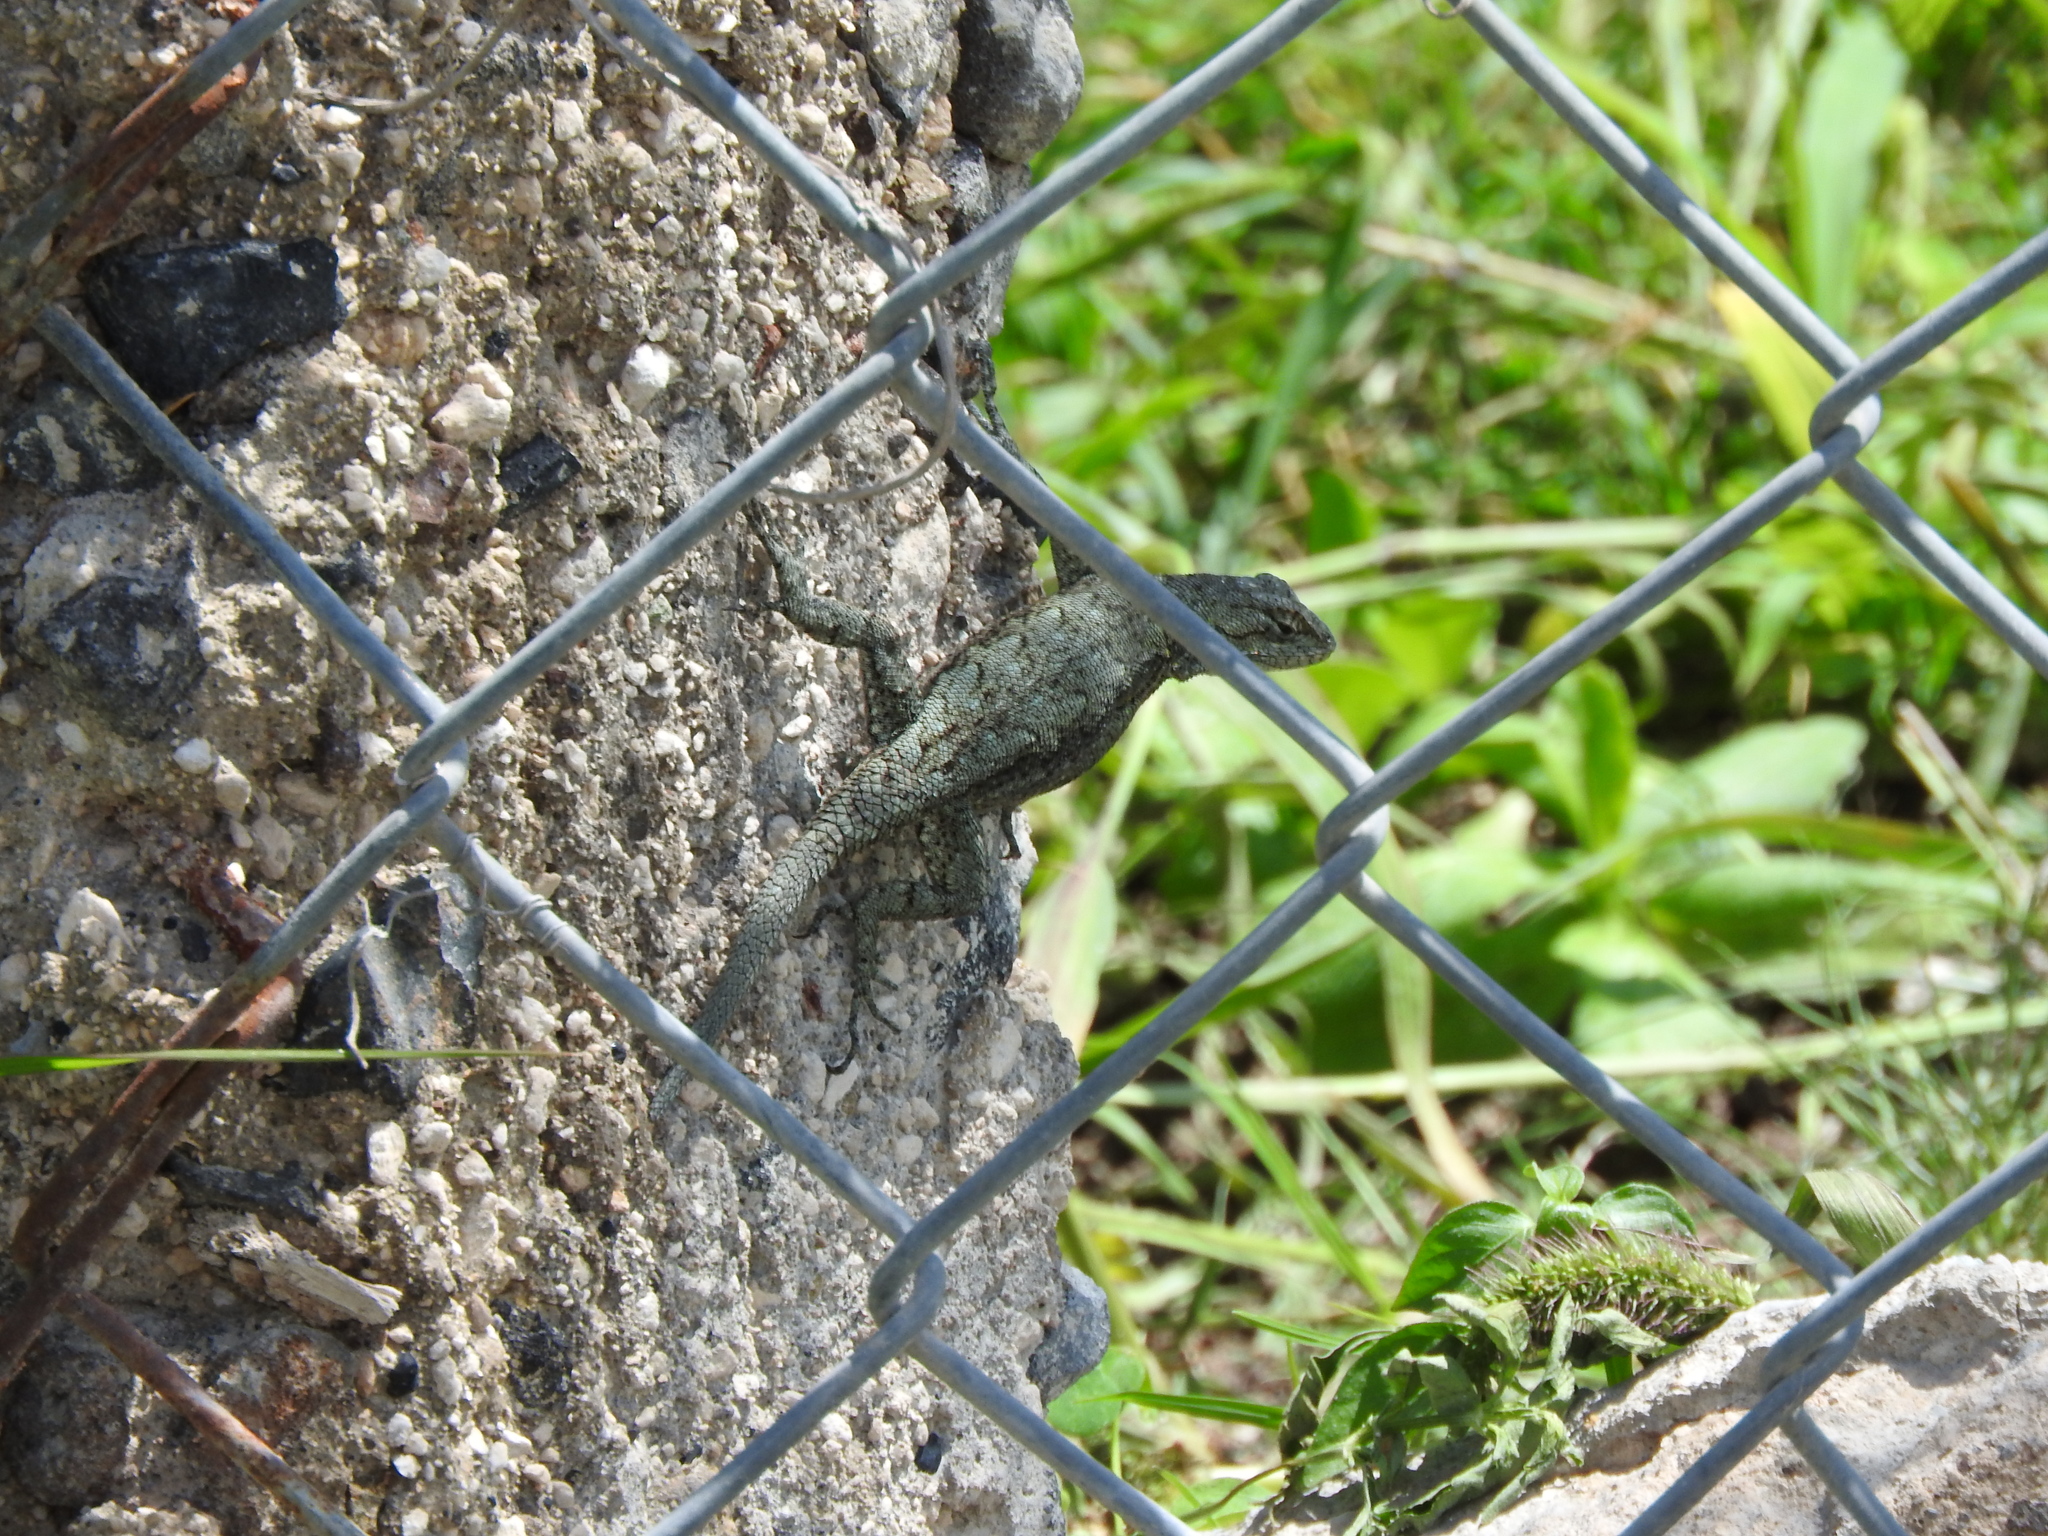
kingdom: Animalia
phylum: Chordata
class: Squamata
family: Phrynosomatidae
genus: Sceloporus
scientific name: Sceloporus grammicus
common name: Mesquite lizard
